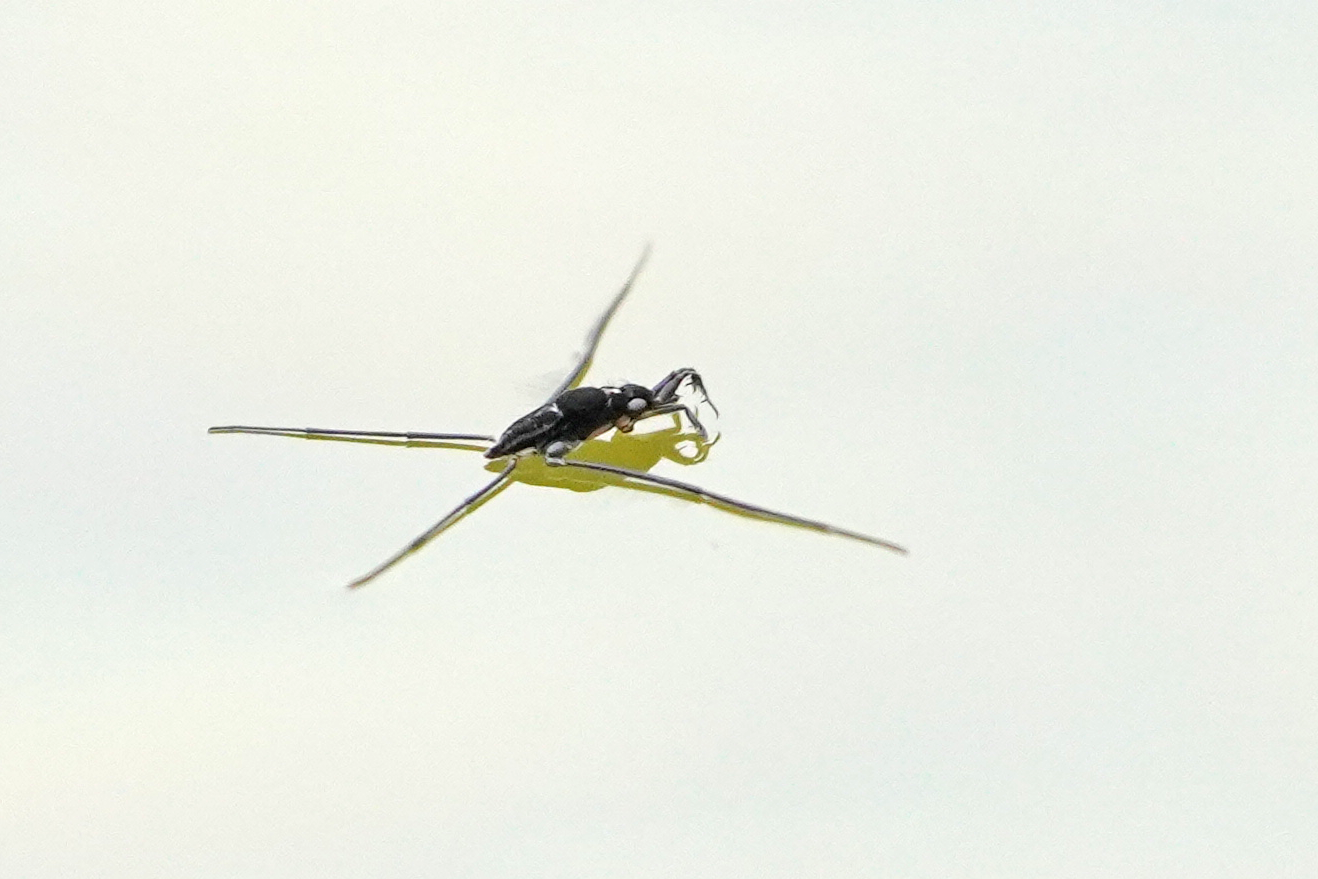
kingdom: Animalia
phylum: Arthropoda
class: Insecta
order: Hemiptera
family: Gerridae
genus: Rheumatobates
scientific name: Rheumatobates tenuipes
